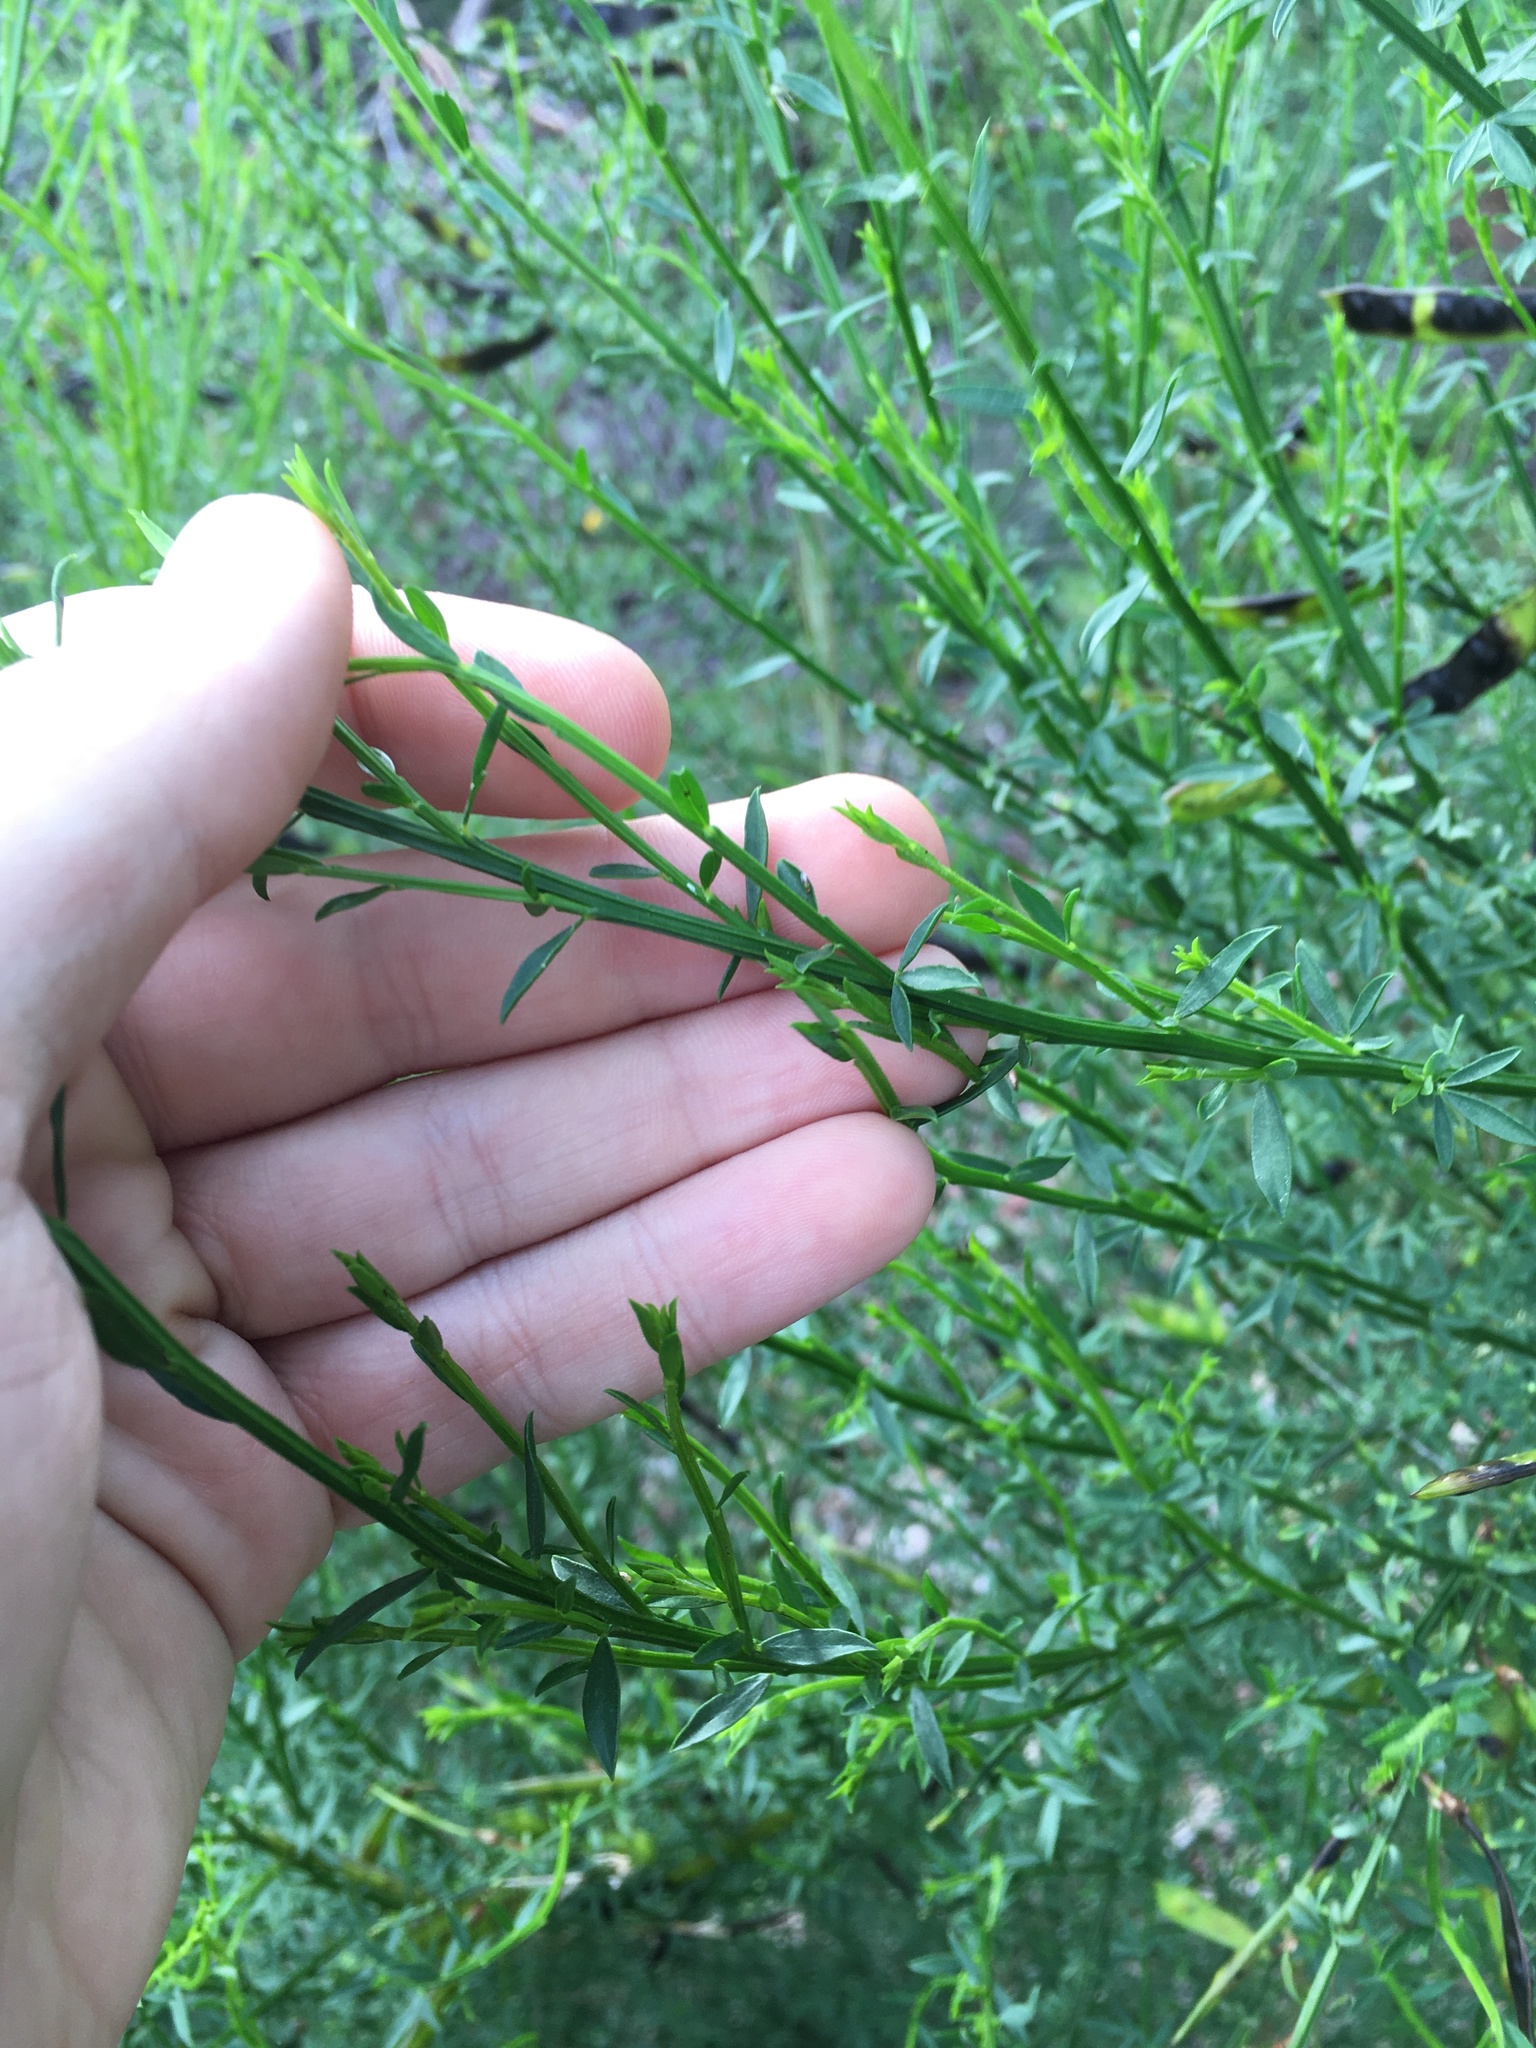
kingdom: Plantae
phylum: Tracheophyta
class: Magnoliopsida
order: Fabales
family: Fabaceae
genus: Cytisus
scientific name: Cytisus scoparius
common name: Scotch broom
